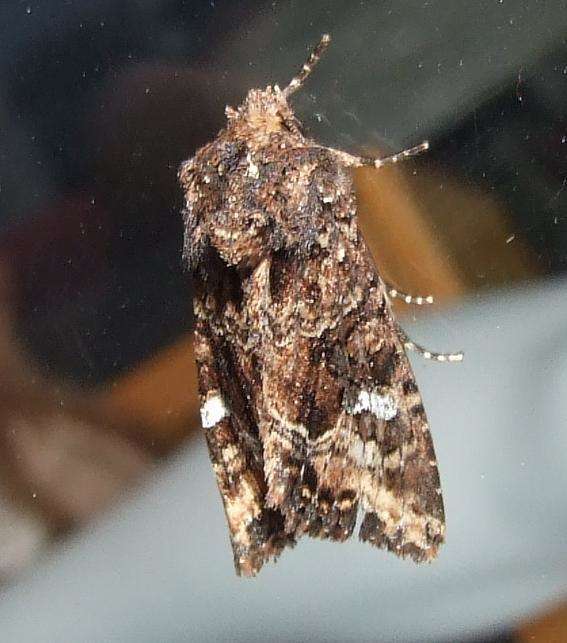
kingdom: Animalia
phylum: Arthropoda
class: Insecta
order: Lepidoptera
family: Noctuidae
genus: Neumichtis
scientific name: Neumichtis saliaris
